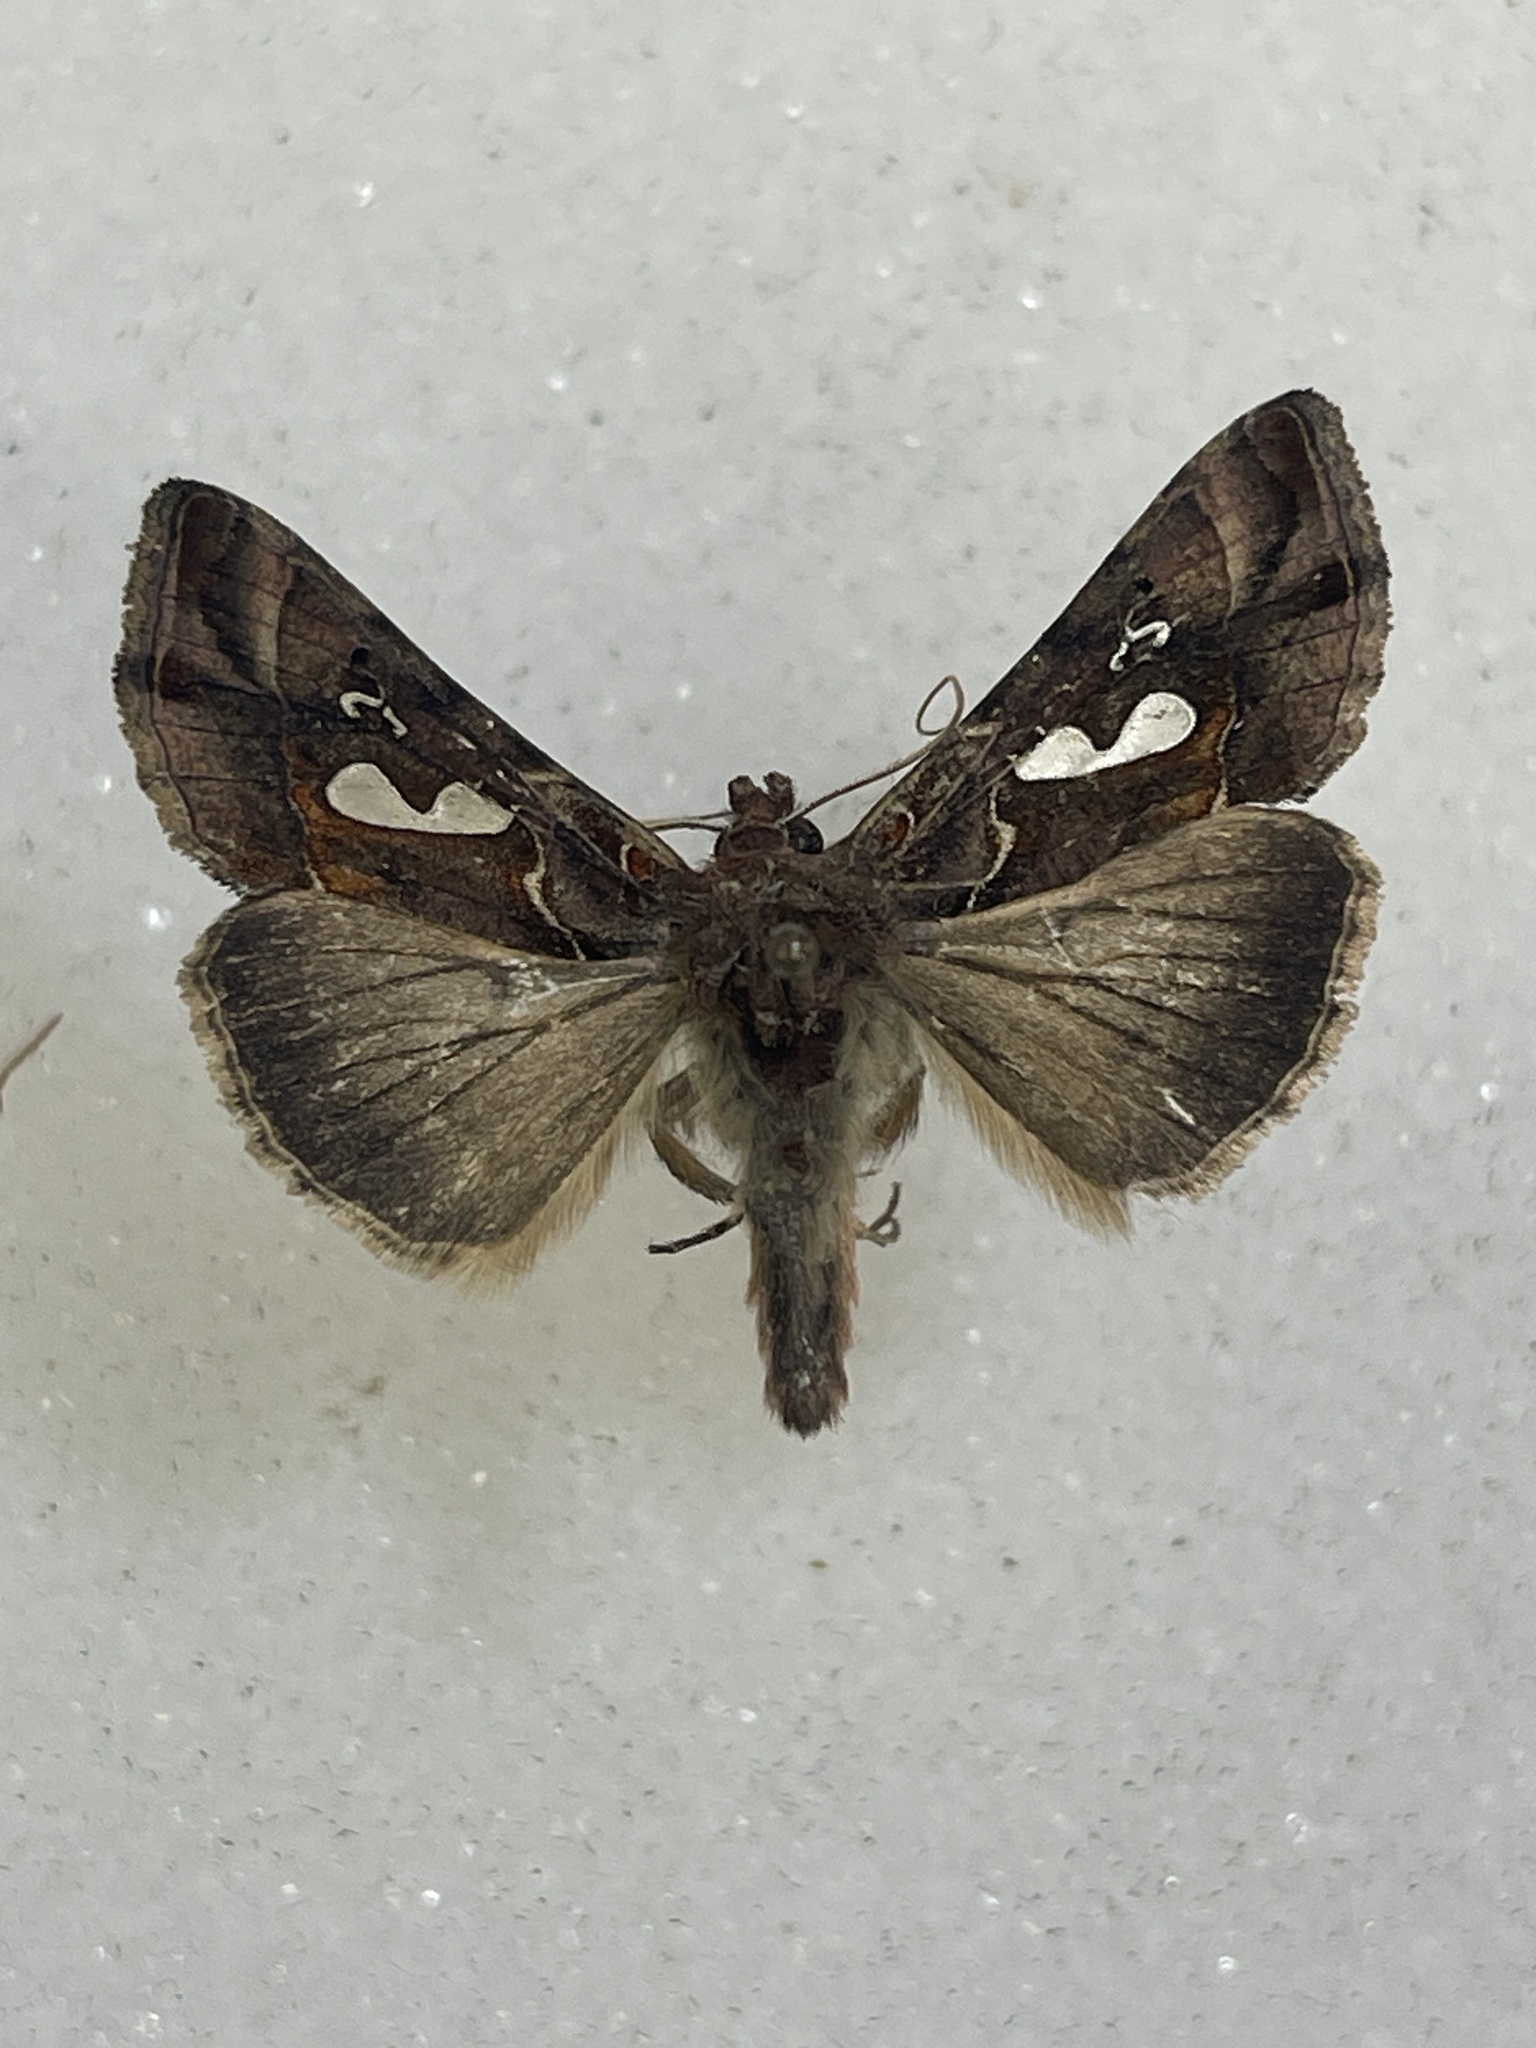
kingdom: Animalia
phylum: Arthropoda
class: Insecta
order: Lepidoptera
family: Noctuidae
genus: Megalographa
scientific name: Megalographa biloba
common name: Cutworm
